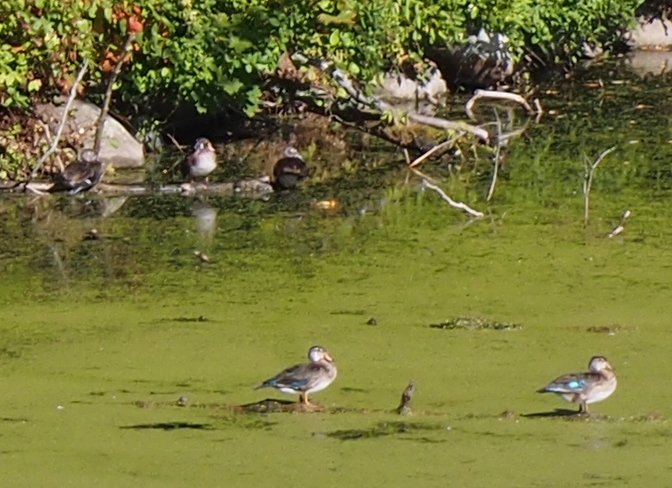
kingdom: Animalia
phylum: Chordata
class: Aves
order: Anseriformes
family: Anatidae
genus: Aix
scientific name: Aix sponsa
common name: Wood duck
